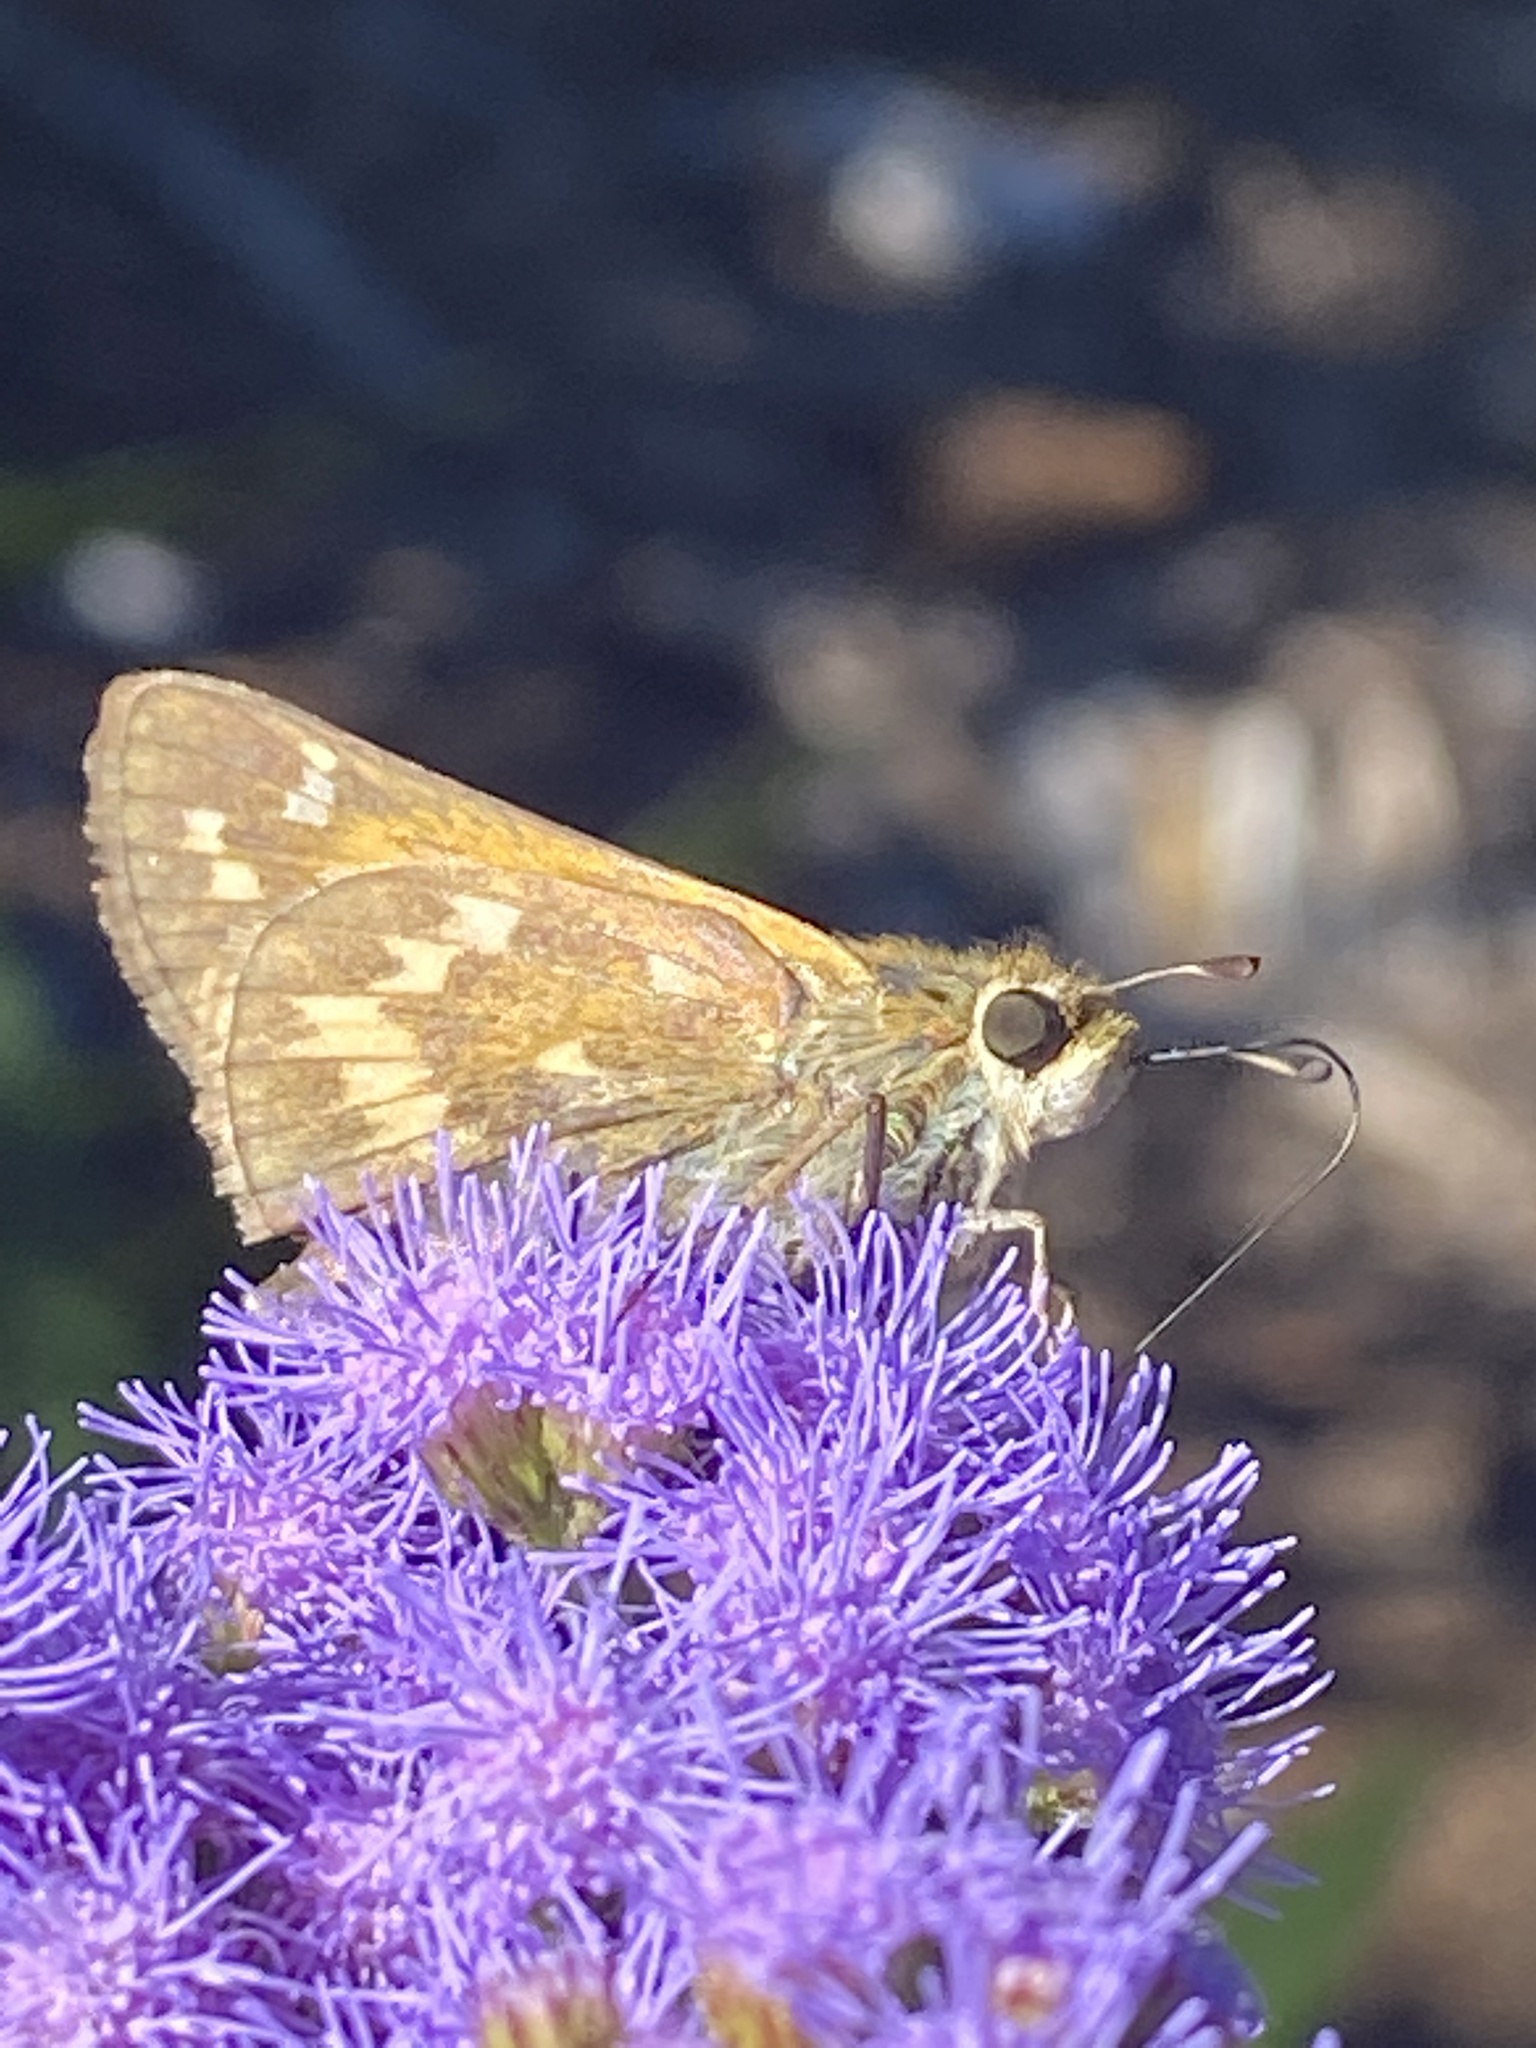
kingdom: Animalia
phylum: Arthropoda
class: Insecta
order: Lepidoptera
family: Hesperiidae
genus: Atalopedes
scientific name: Atalopedes
